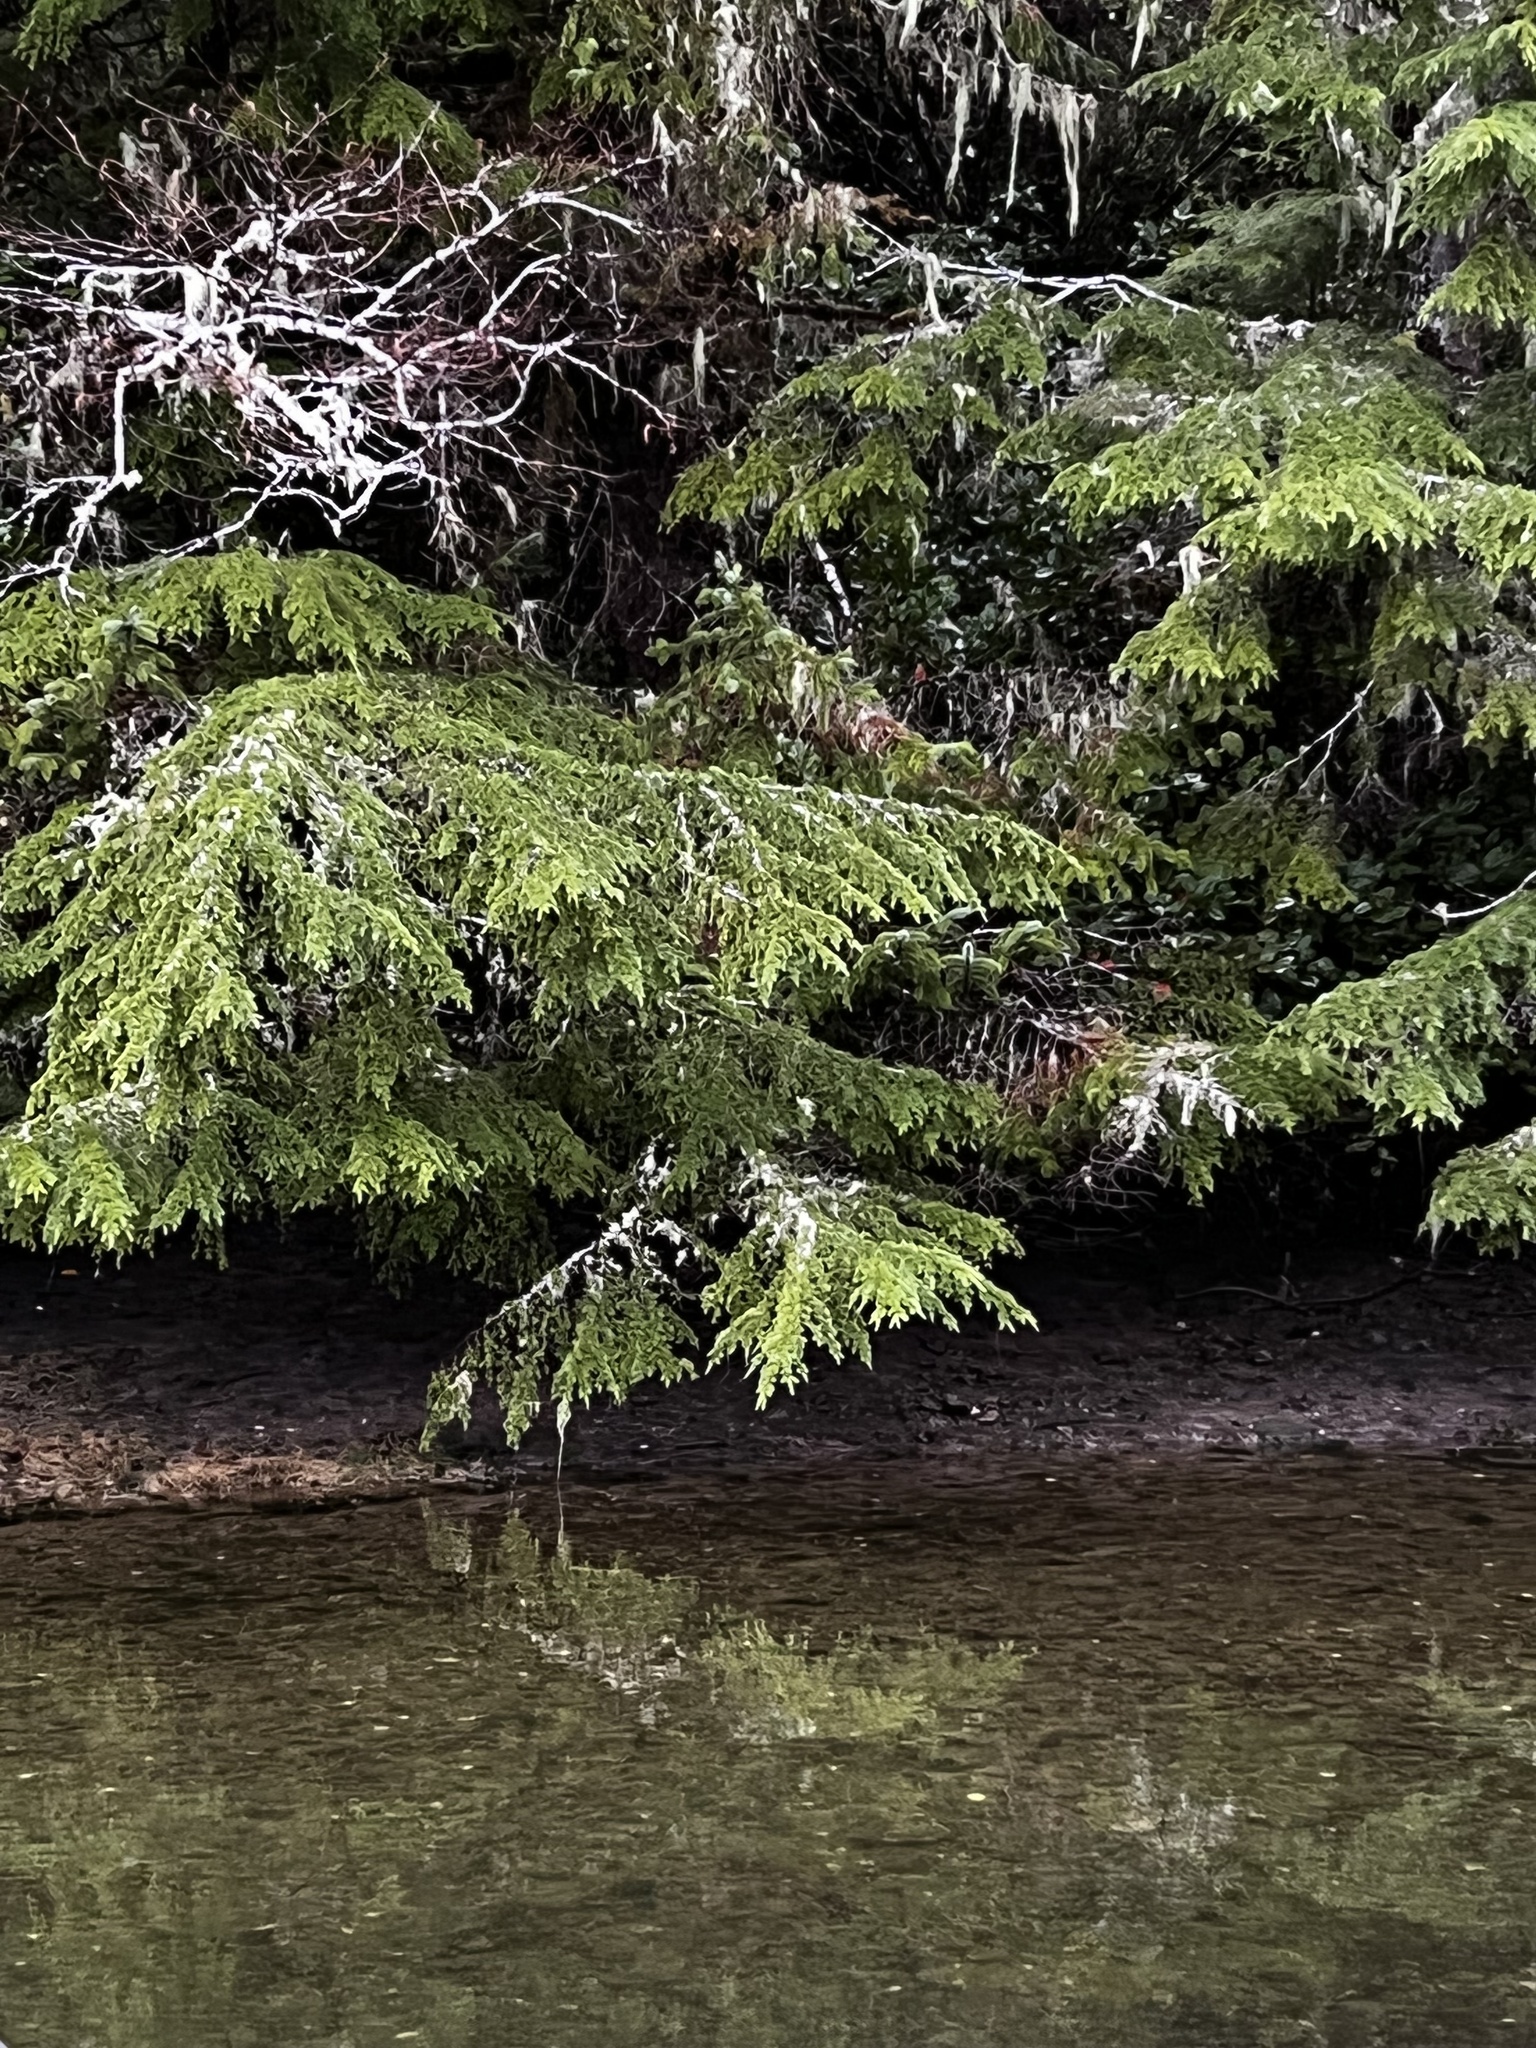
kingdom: Plantae
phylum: Tracheophyta
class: Pinopsida
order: Pinales
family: Pinaceae
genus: Tsuga
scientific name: Tsuga heterophylla
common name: Western hemlock
